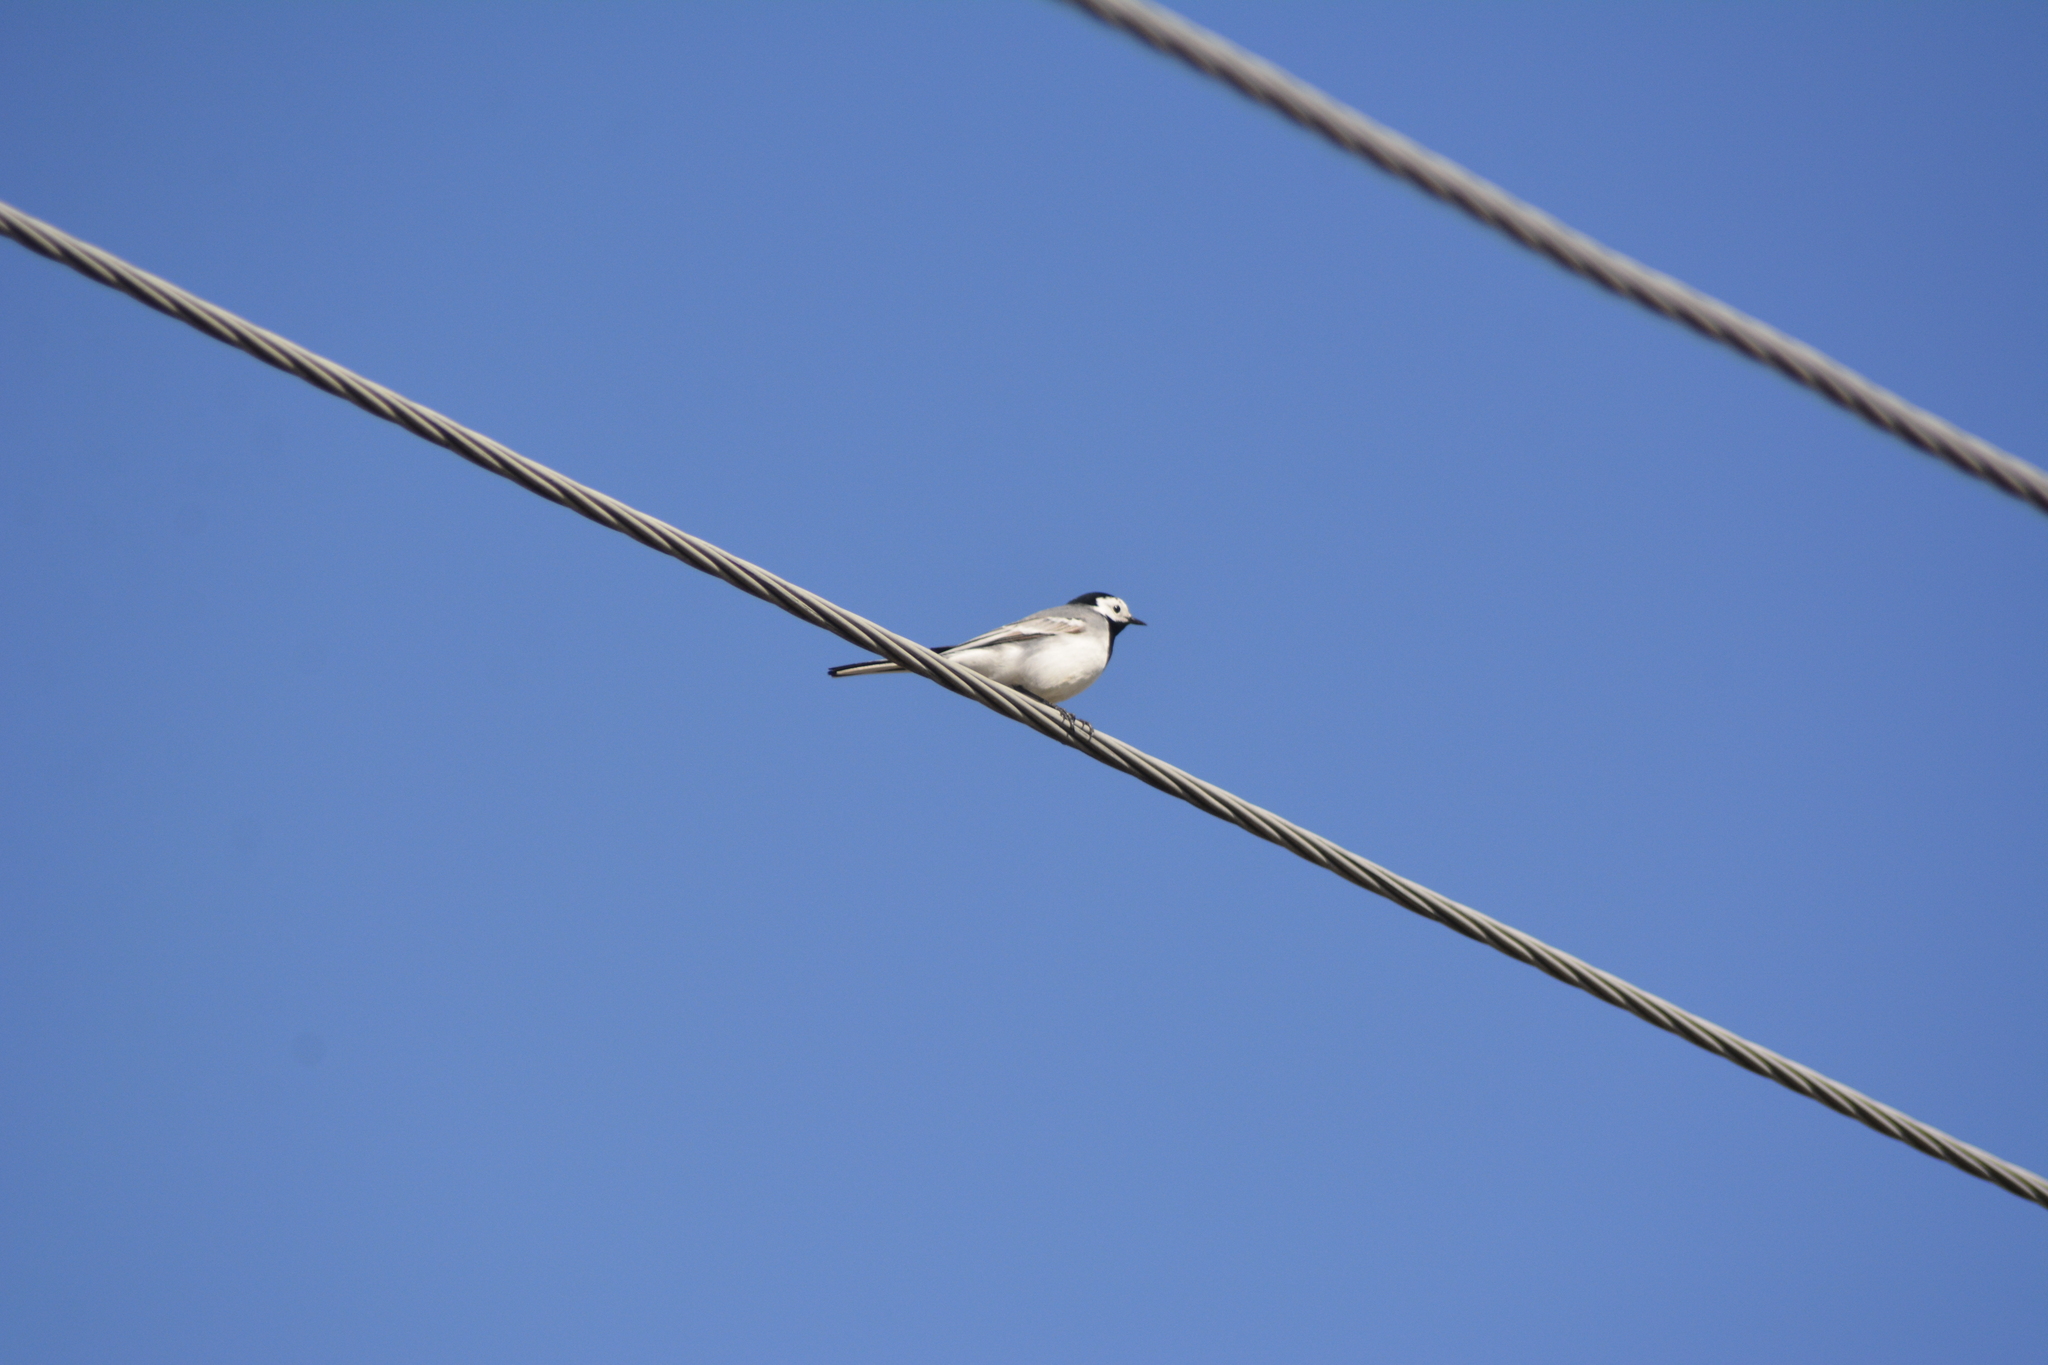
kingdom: Animalia
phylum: Chordata
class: Aves
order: Passeriformes
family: Motacillidae
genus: Motacilla
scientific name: Motacilla alba
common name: White wagtail
